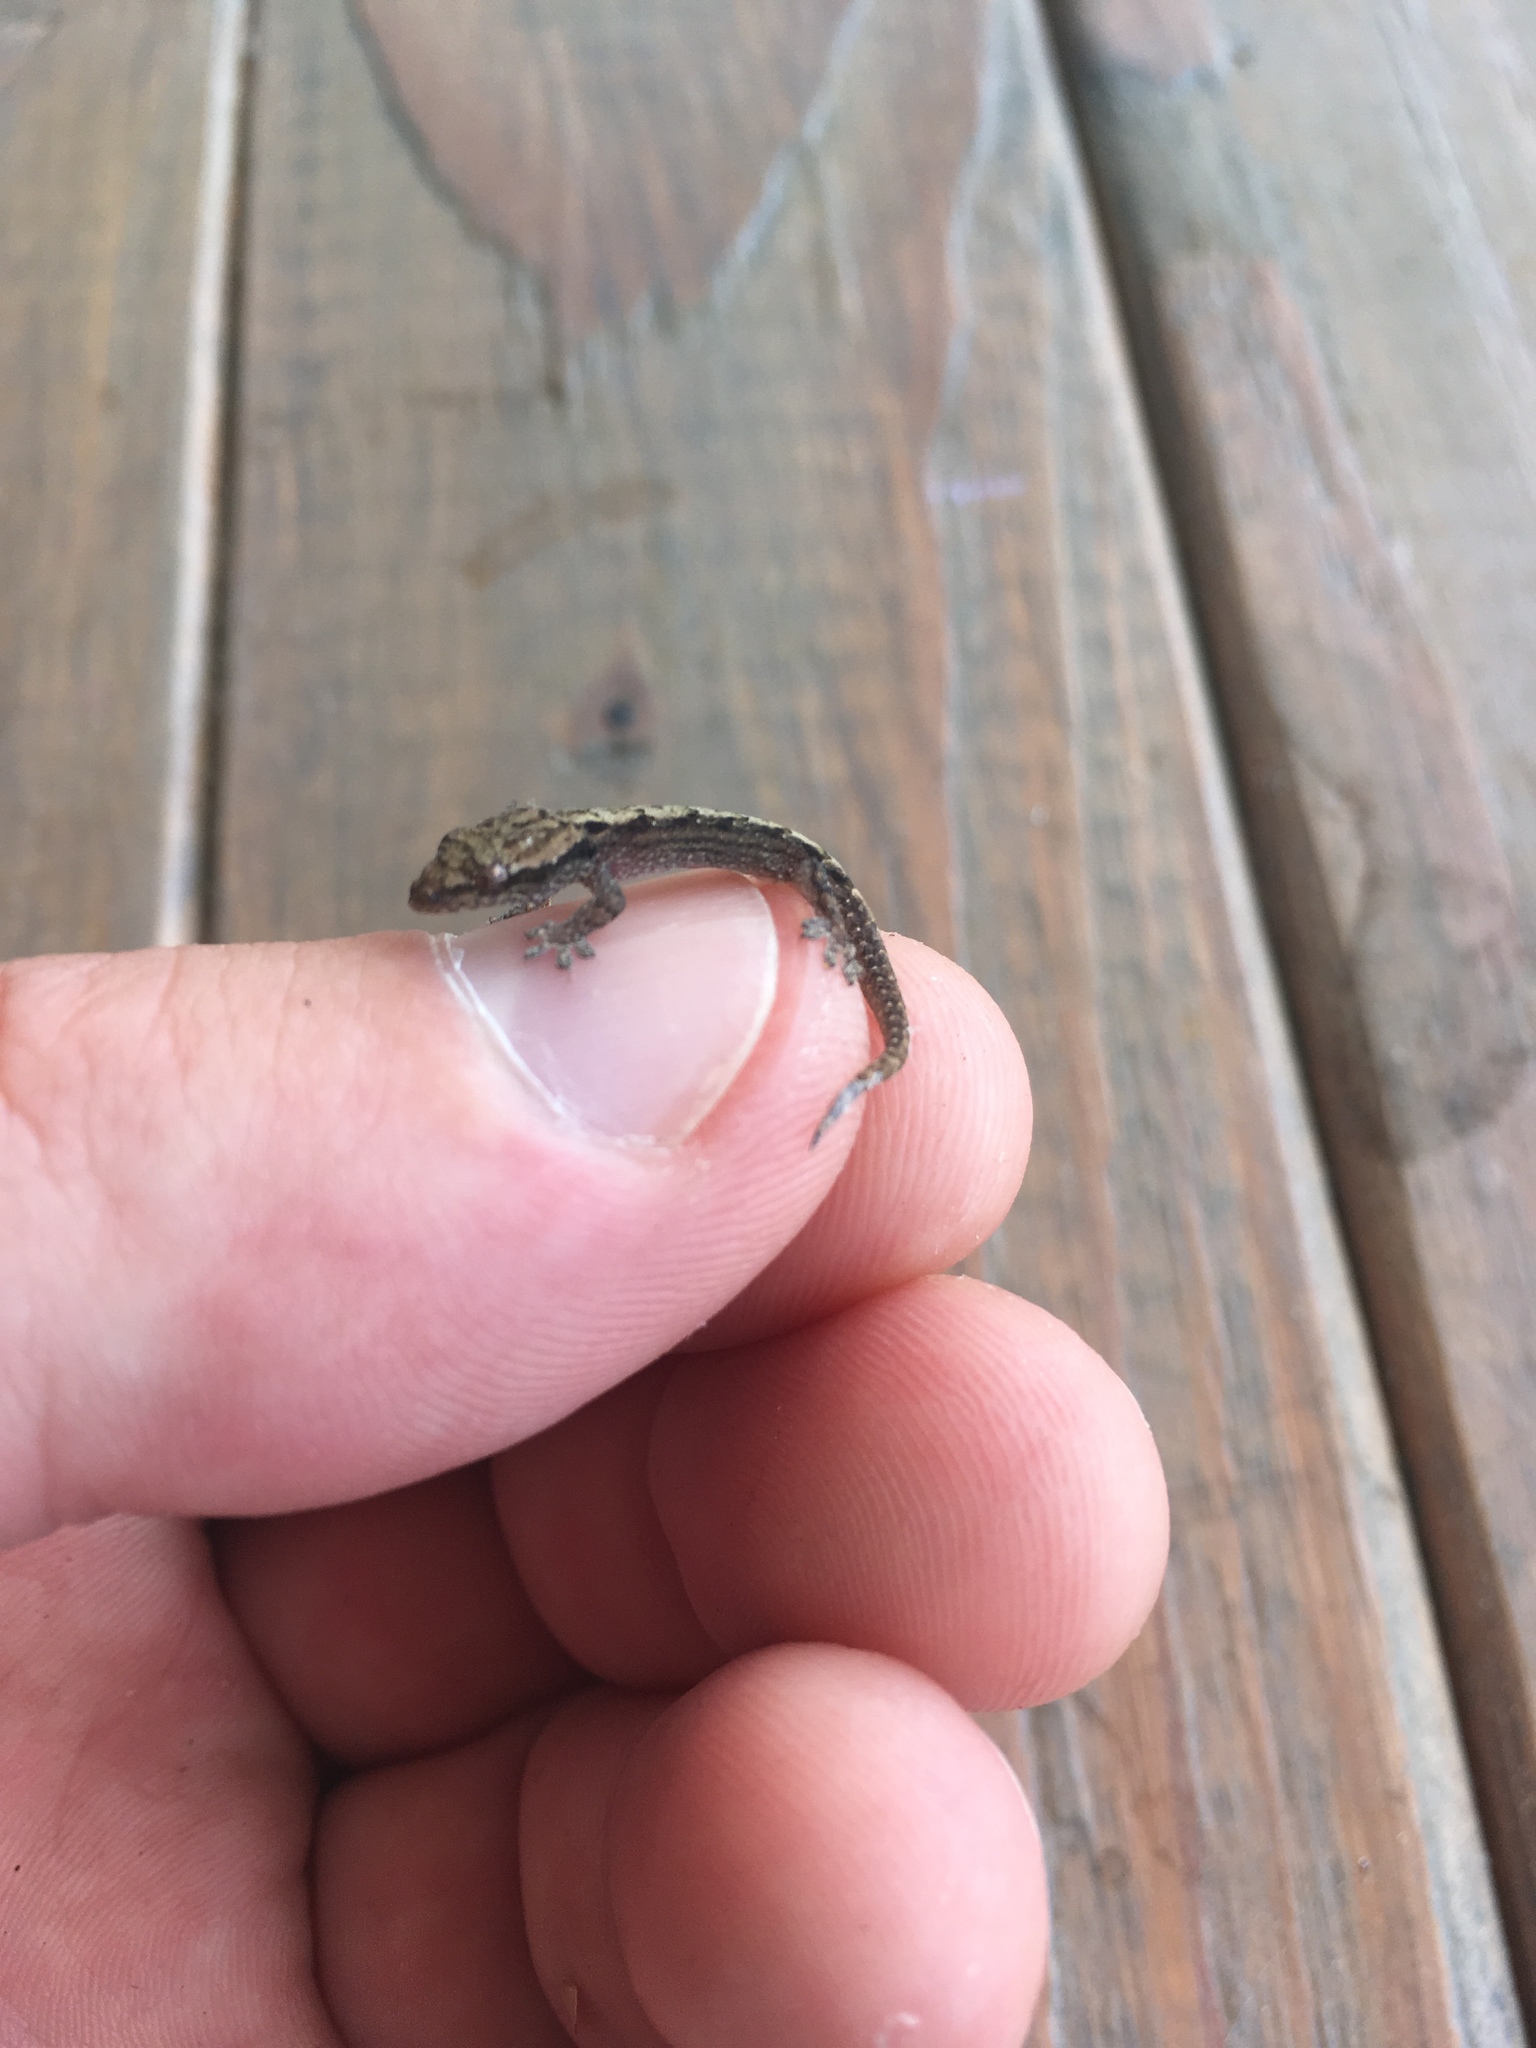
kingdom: Animalia
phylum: Chordata
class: Squamata
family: Gekkonidae
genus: Lepidodactylus
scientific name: Lepidodactylus lugubris
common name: Mourning gecko
